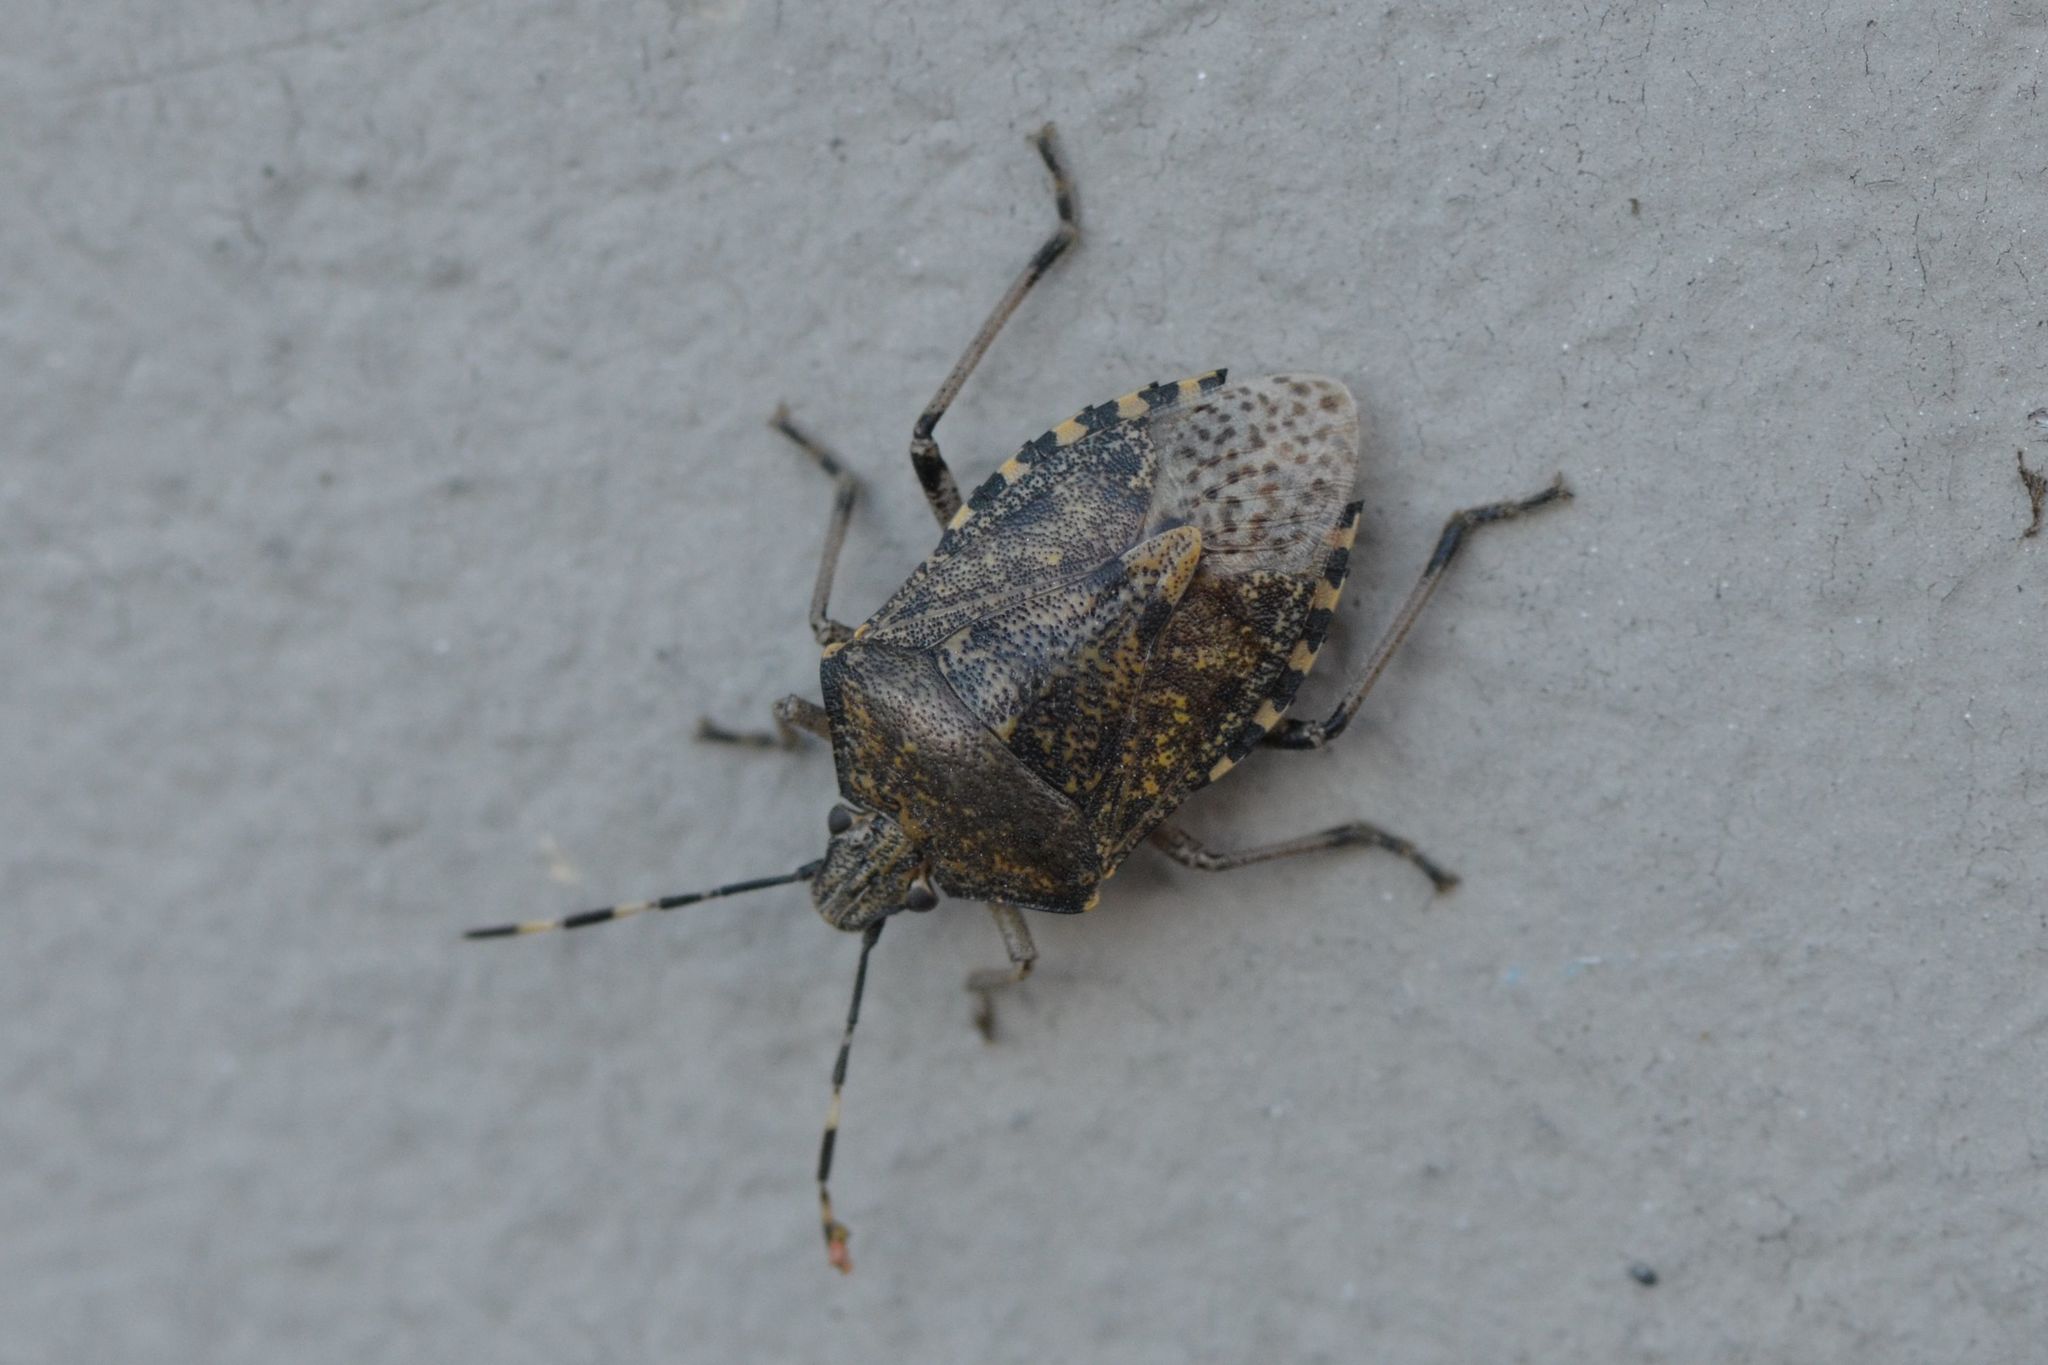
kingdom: Animalia
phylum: Arthropoda
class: Insecta
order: Hemiptera
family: Pentatomidae
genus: Rhaphigaster
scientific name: Rhaphigaster nebulosa
